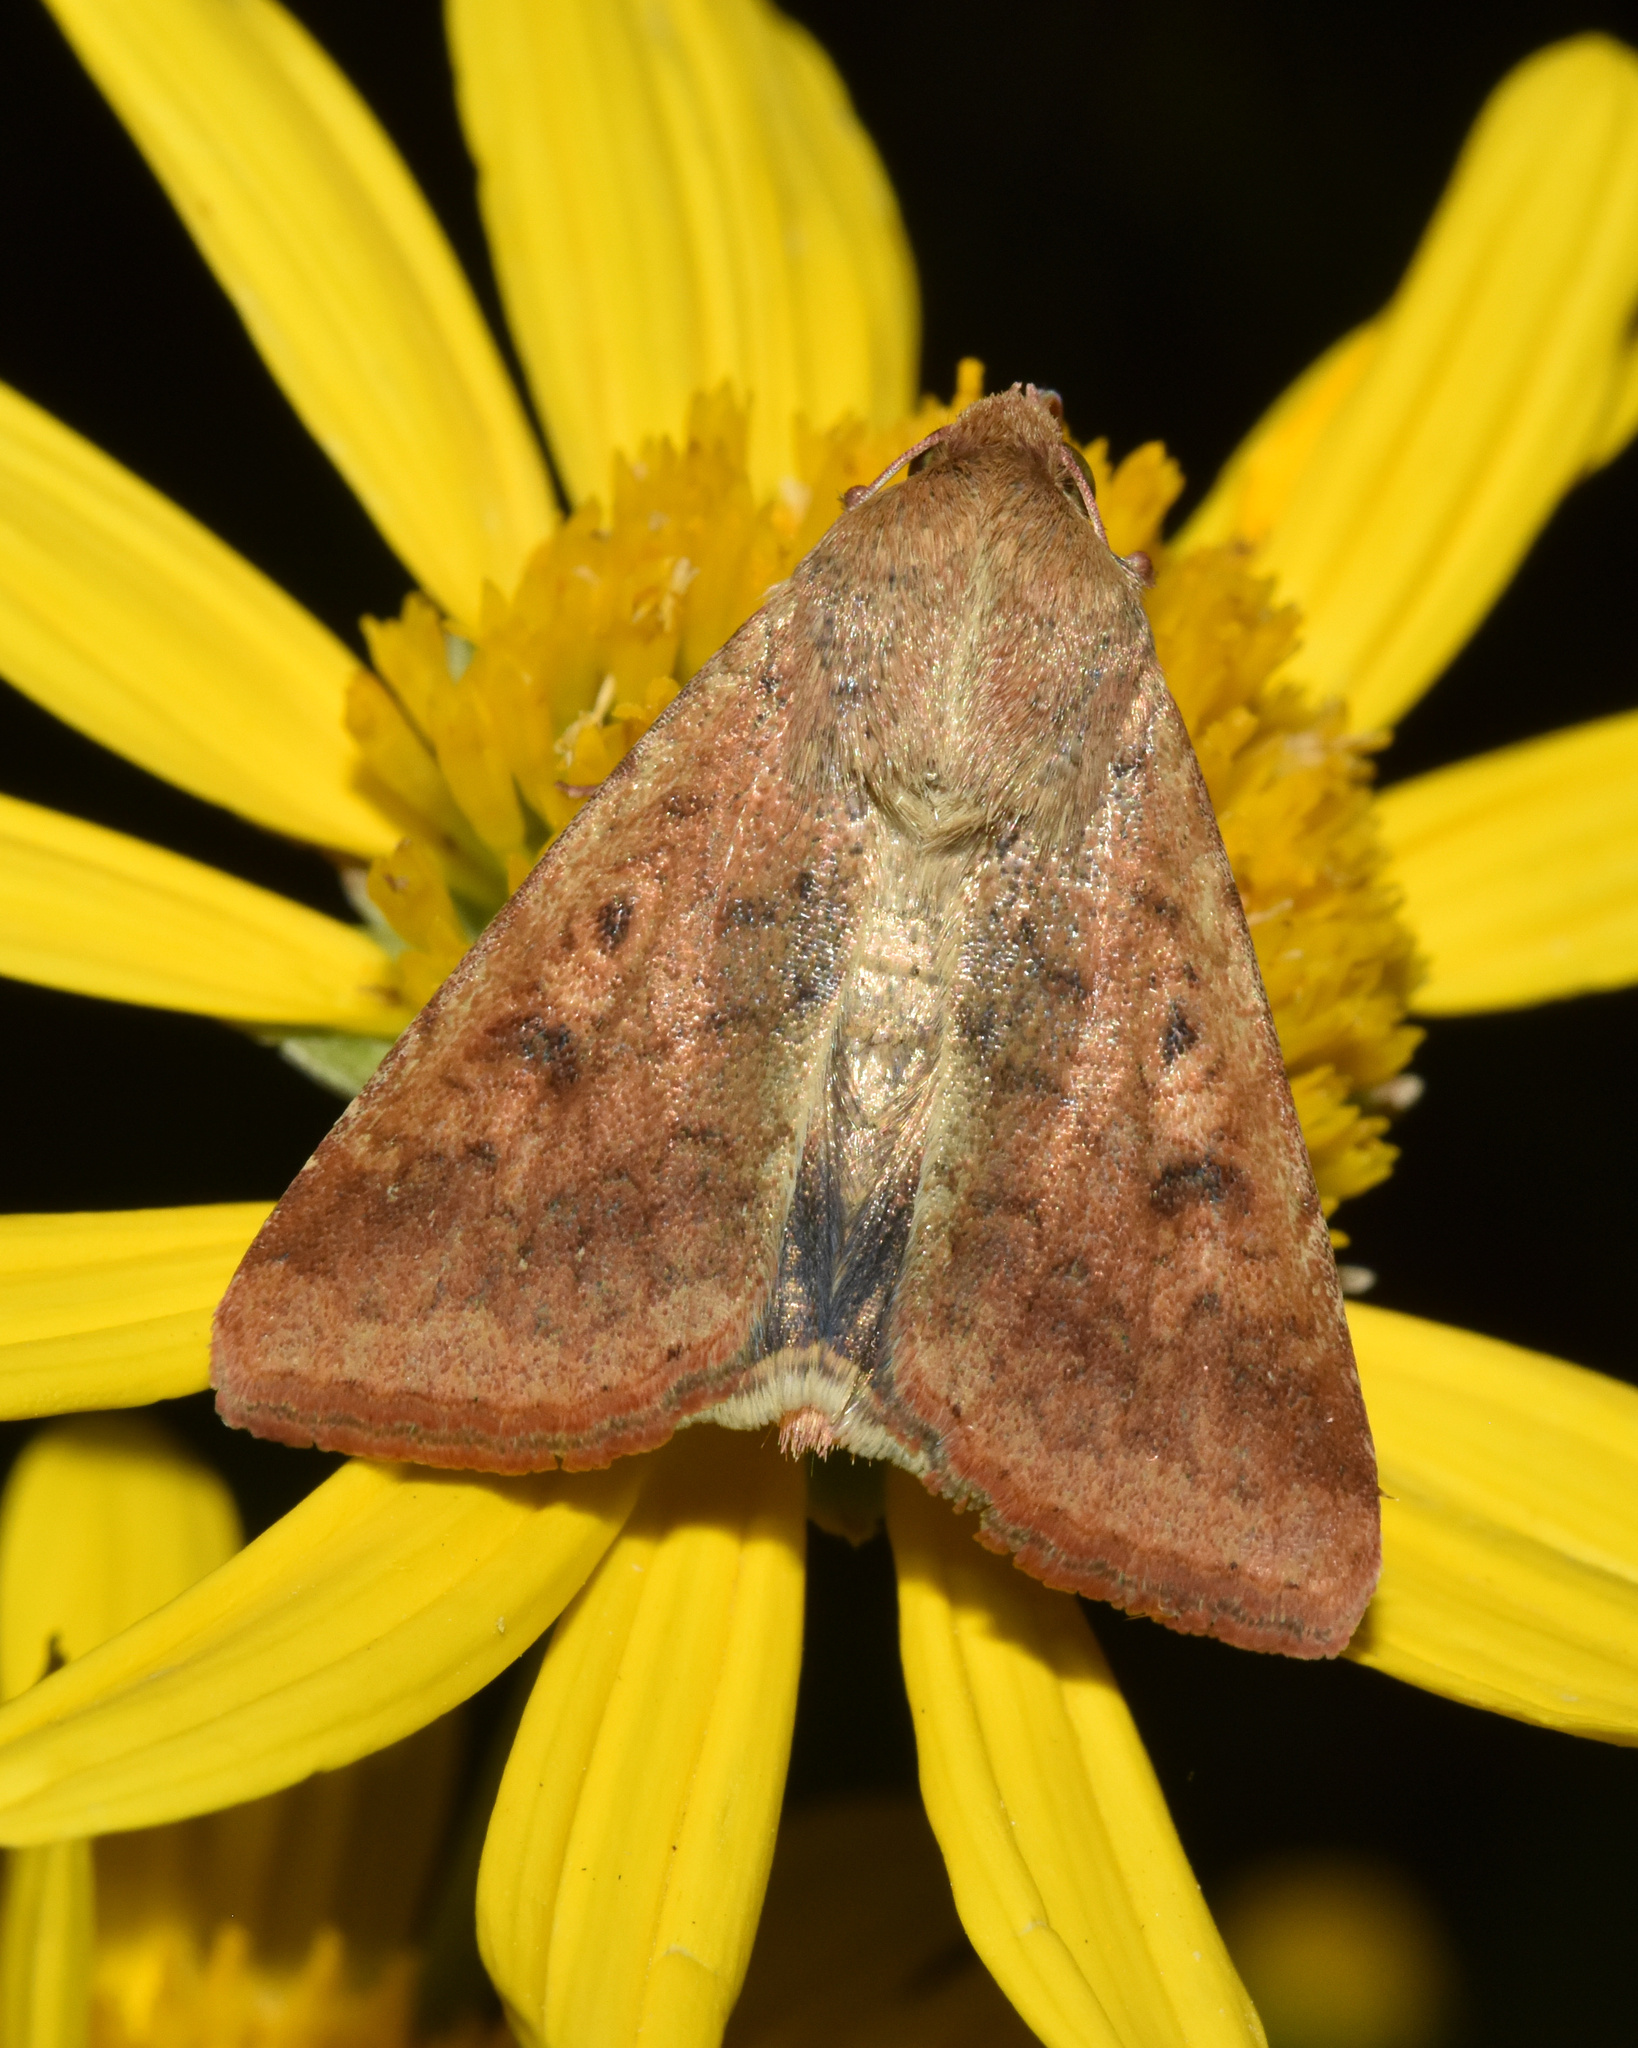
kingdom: Animalia
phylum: Arthropoda
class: Insecta
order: Lepidoptera
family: Noctuidae
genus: Helicoverpa
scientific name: Helicoverpa armigera
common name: Cotton bollworm
